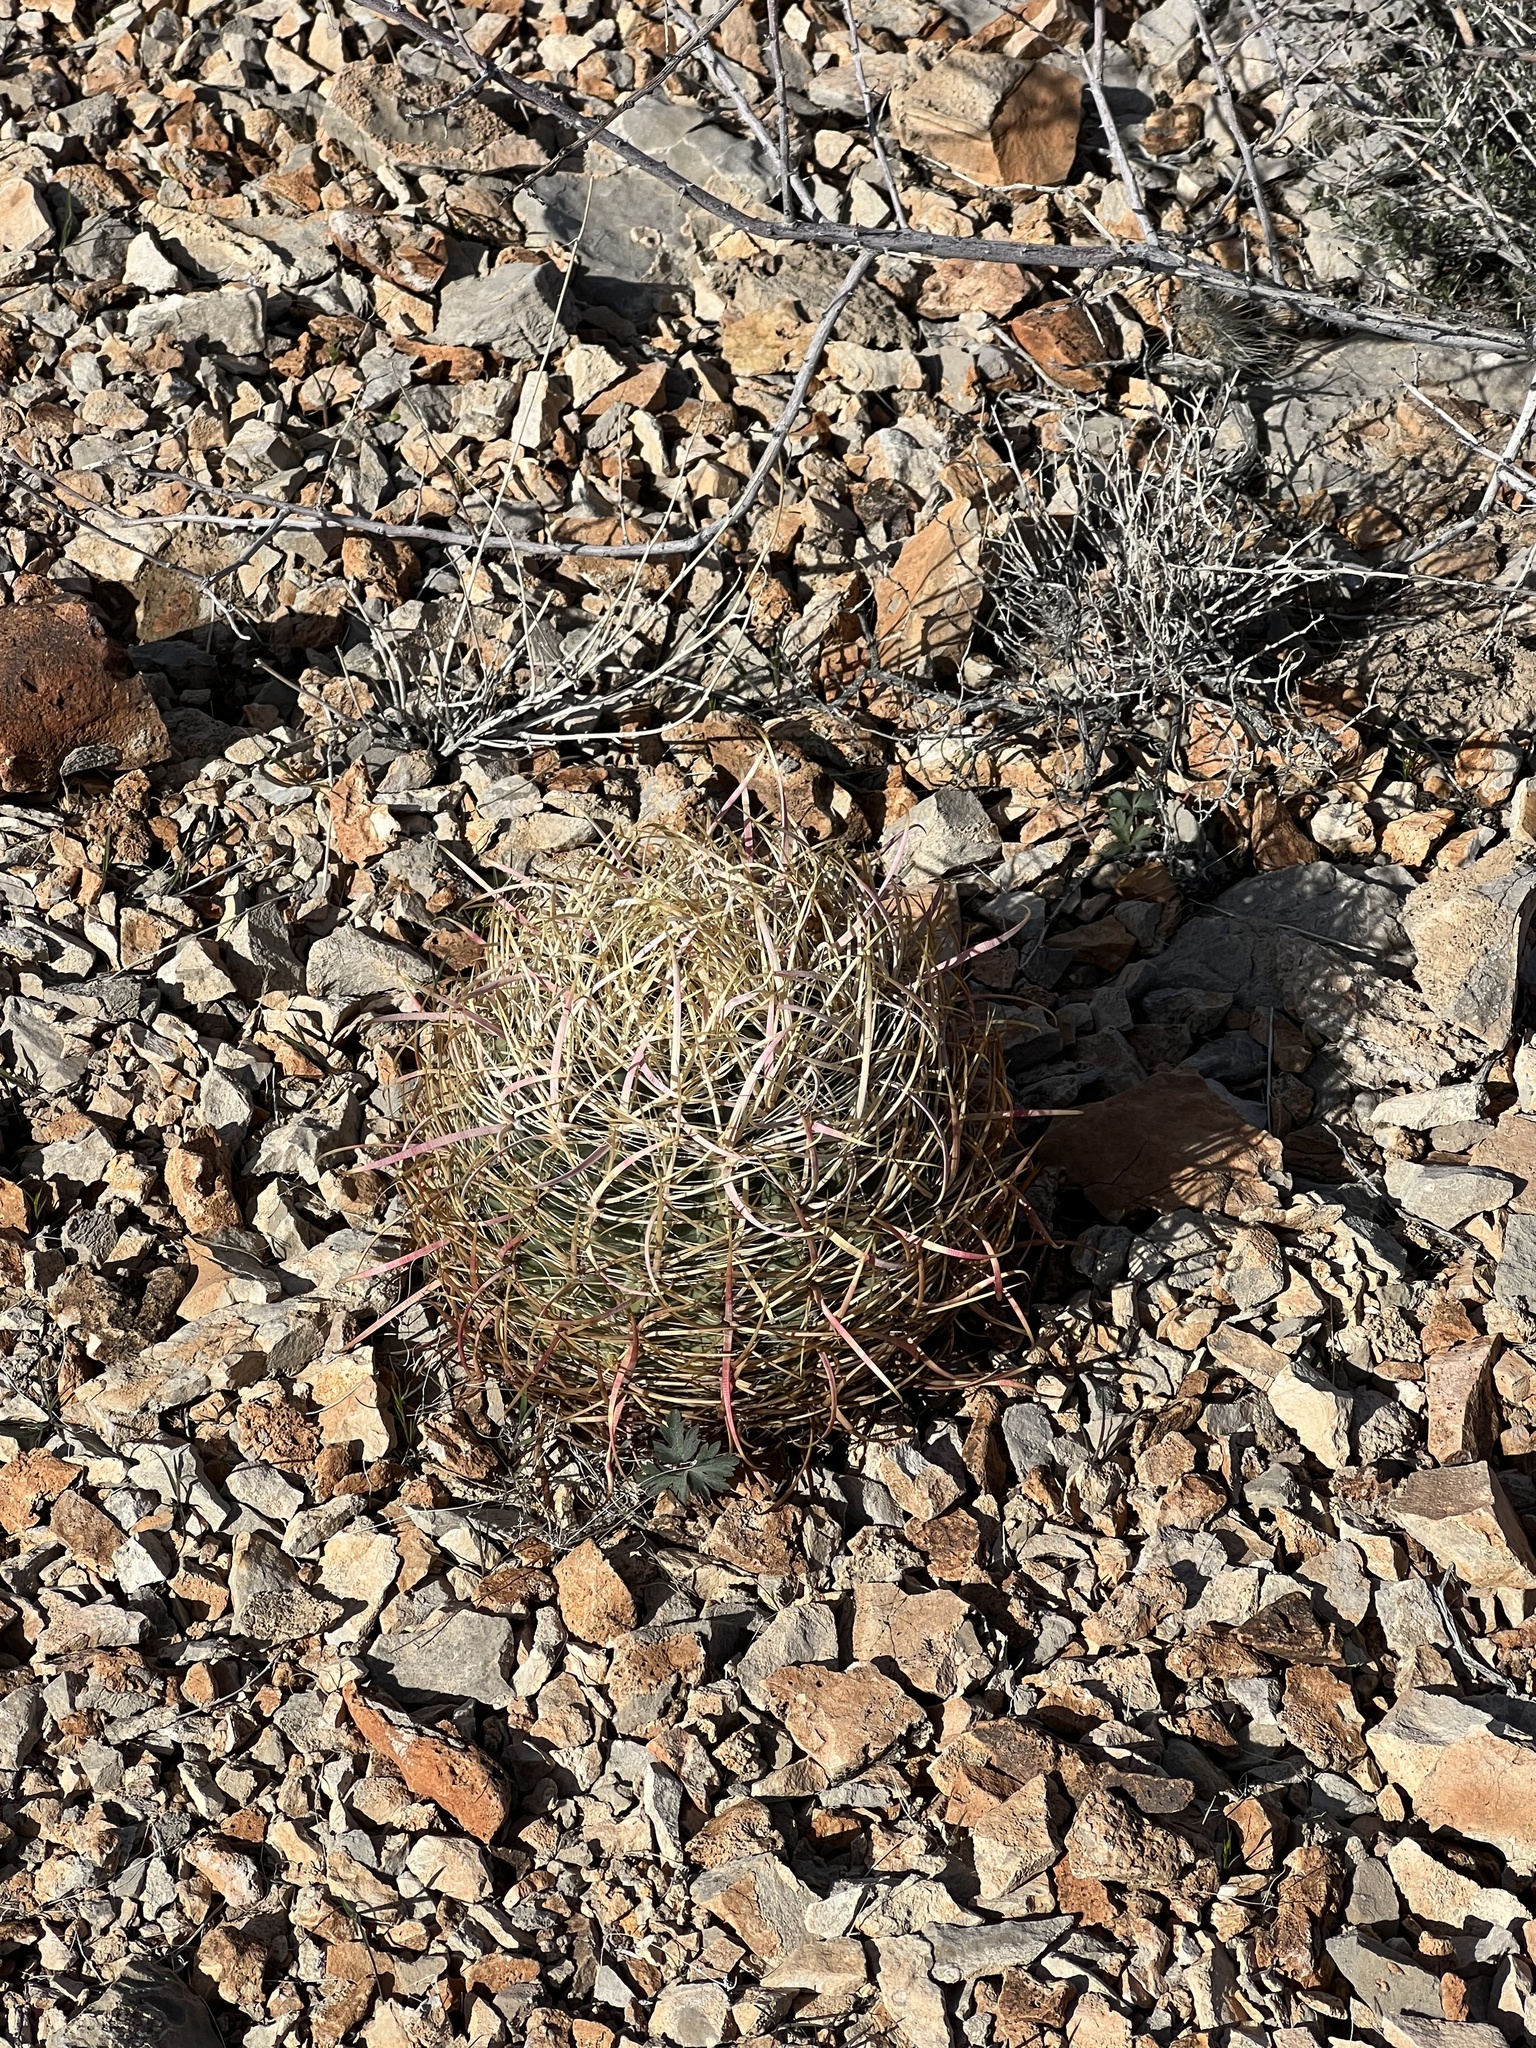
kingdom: Plantae
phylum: Tracheophyta
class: Magnoliopsida
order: Caryophyllales
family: Cactaceae
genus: Ferocactus
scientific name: Ferocactus cylindraceus
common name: California barrel cactus
